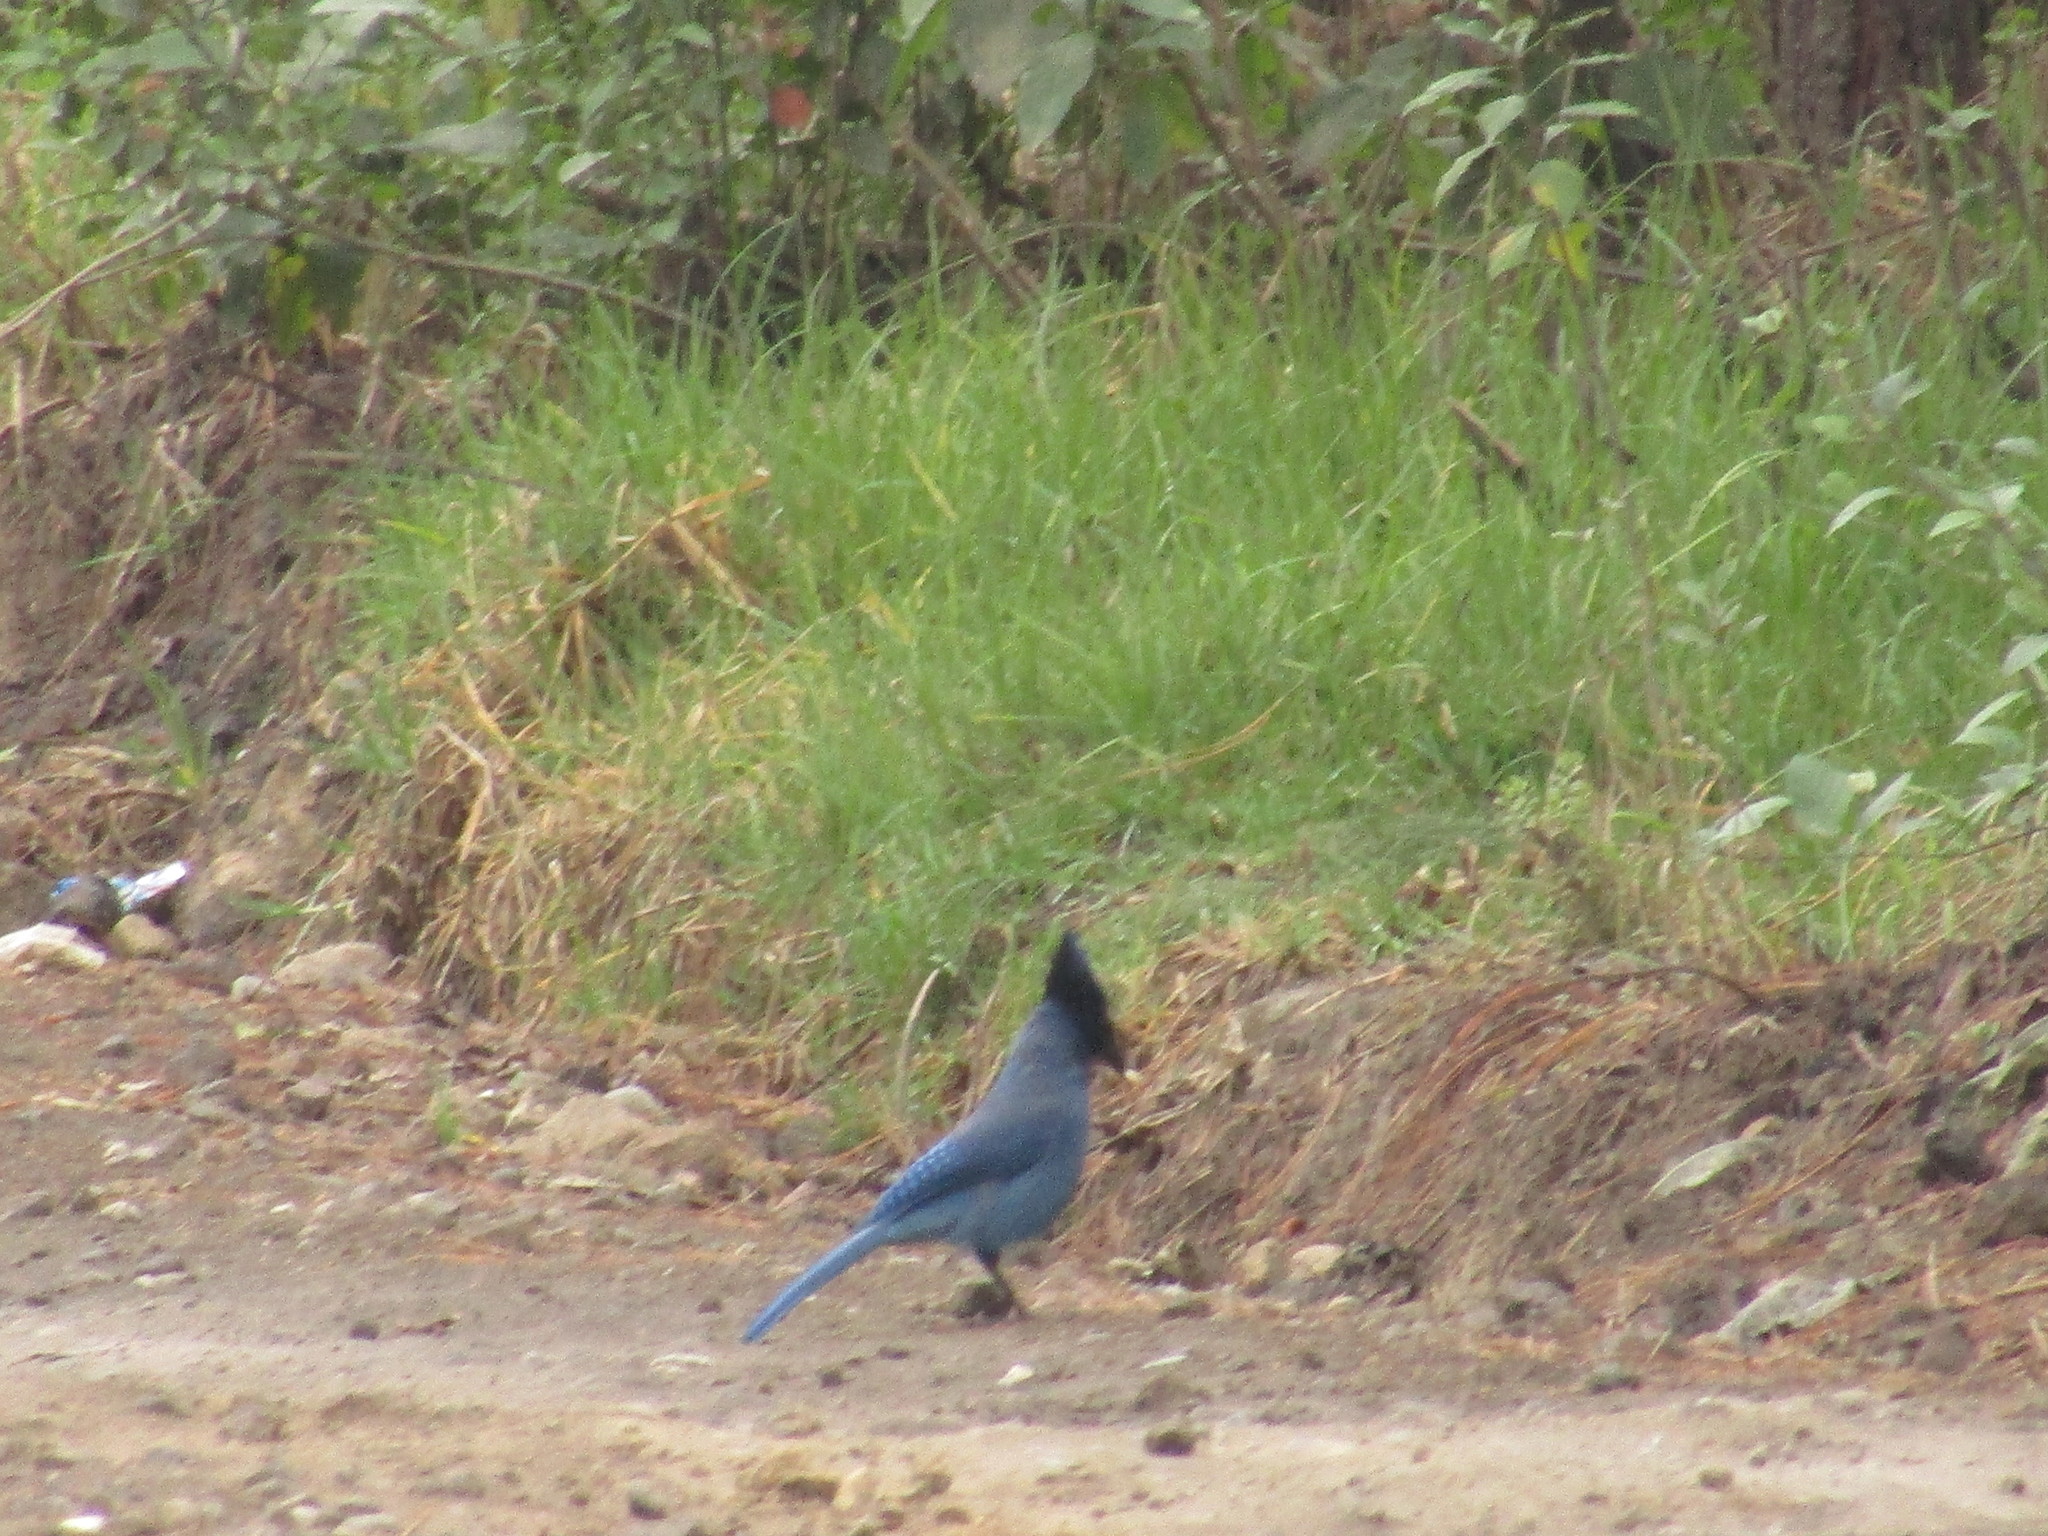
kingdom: Animalia
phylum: Chordata
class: Aves
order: Passeriformes
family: Corvidae
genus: Cyanocitta
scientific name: Cyanocitta stelleri
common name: Steller's jay
